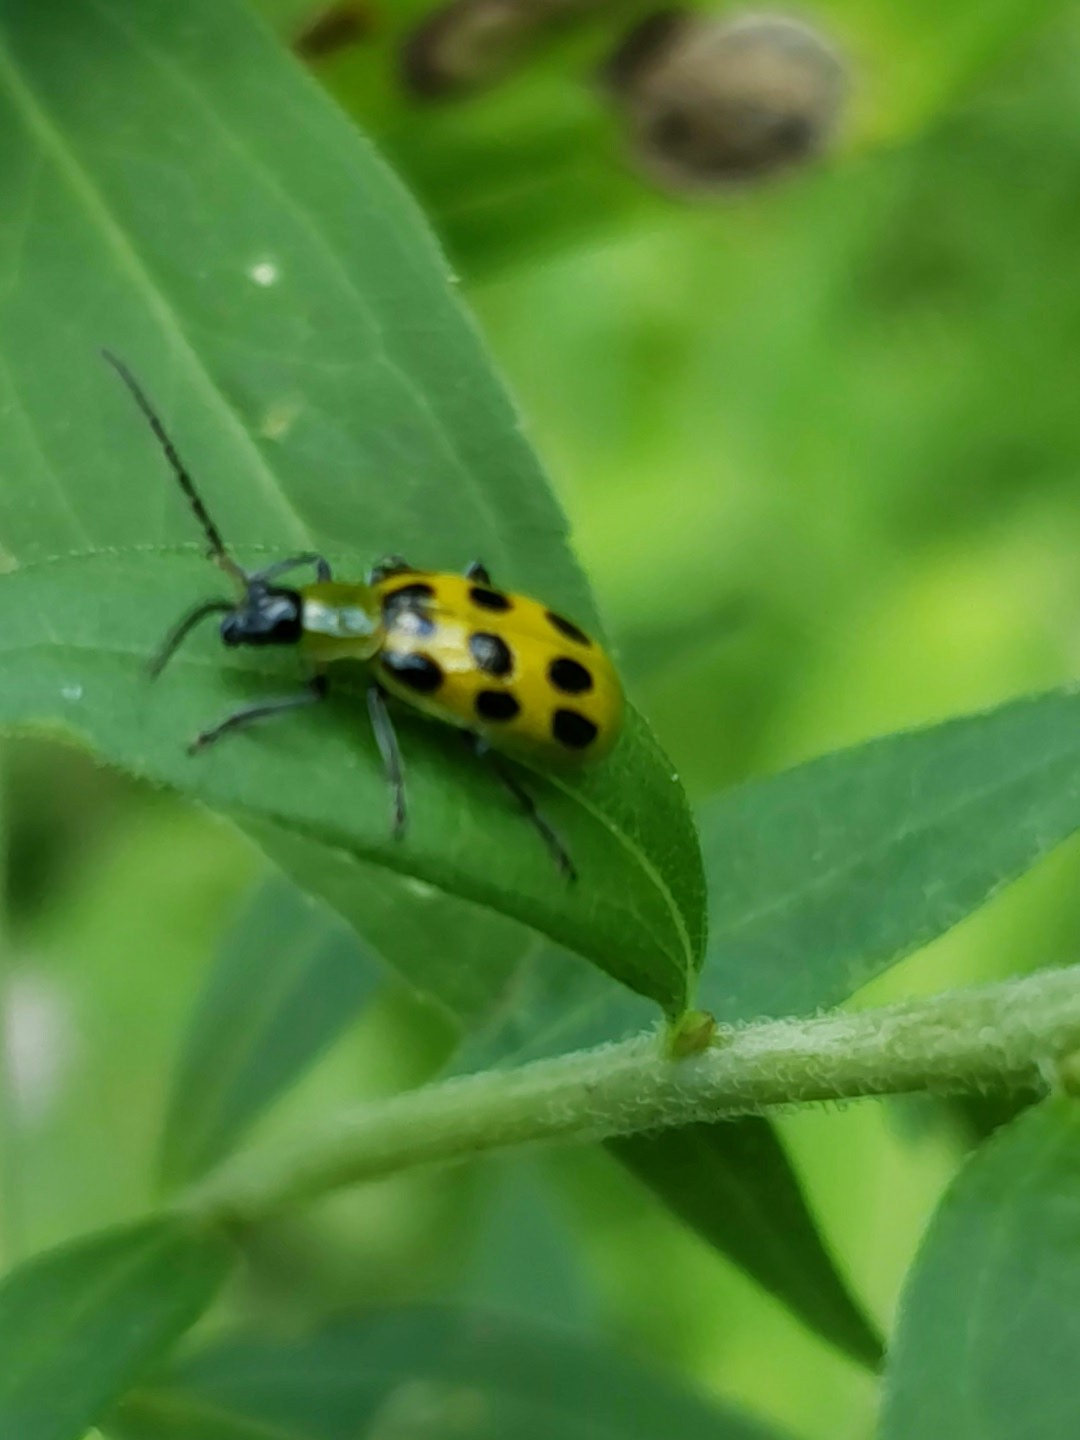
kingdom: Animalia
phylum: Arthropoda
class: Insecta
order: Coleoptera
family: Chrysomelidae
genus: Diabrotica
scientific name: Diabrotica undecimpunctata
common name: Spotted cucumber beetle
